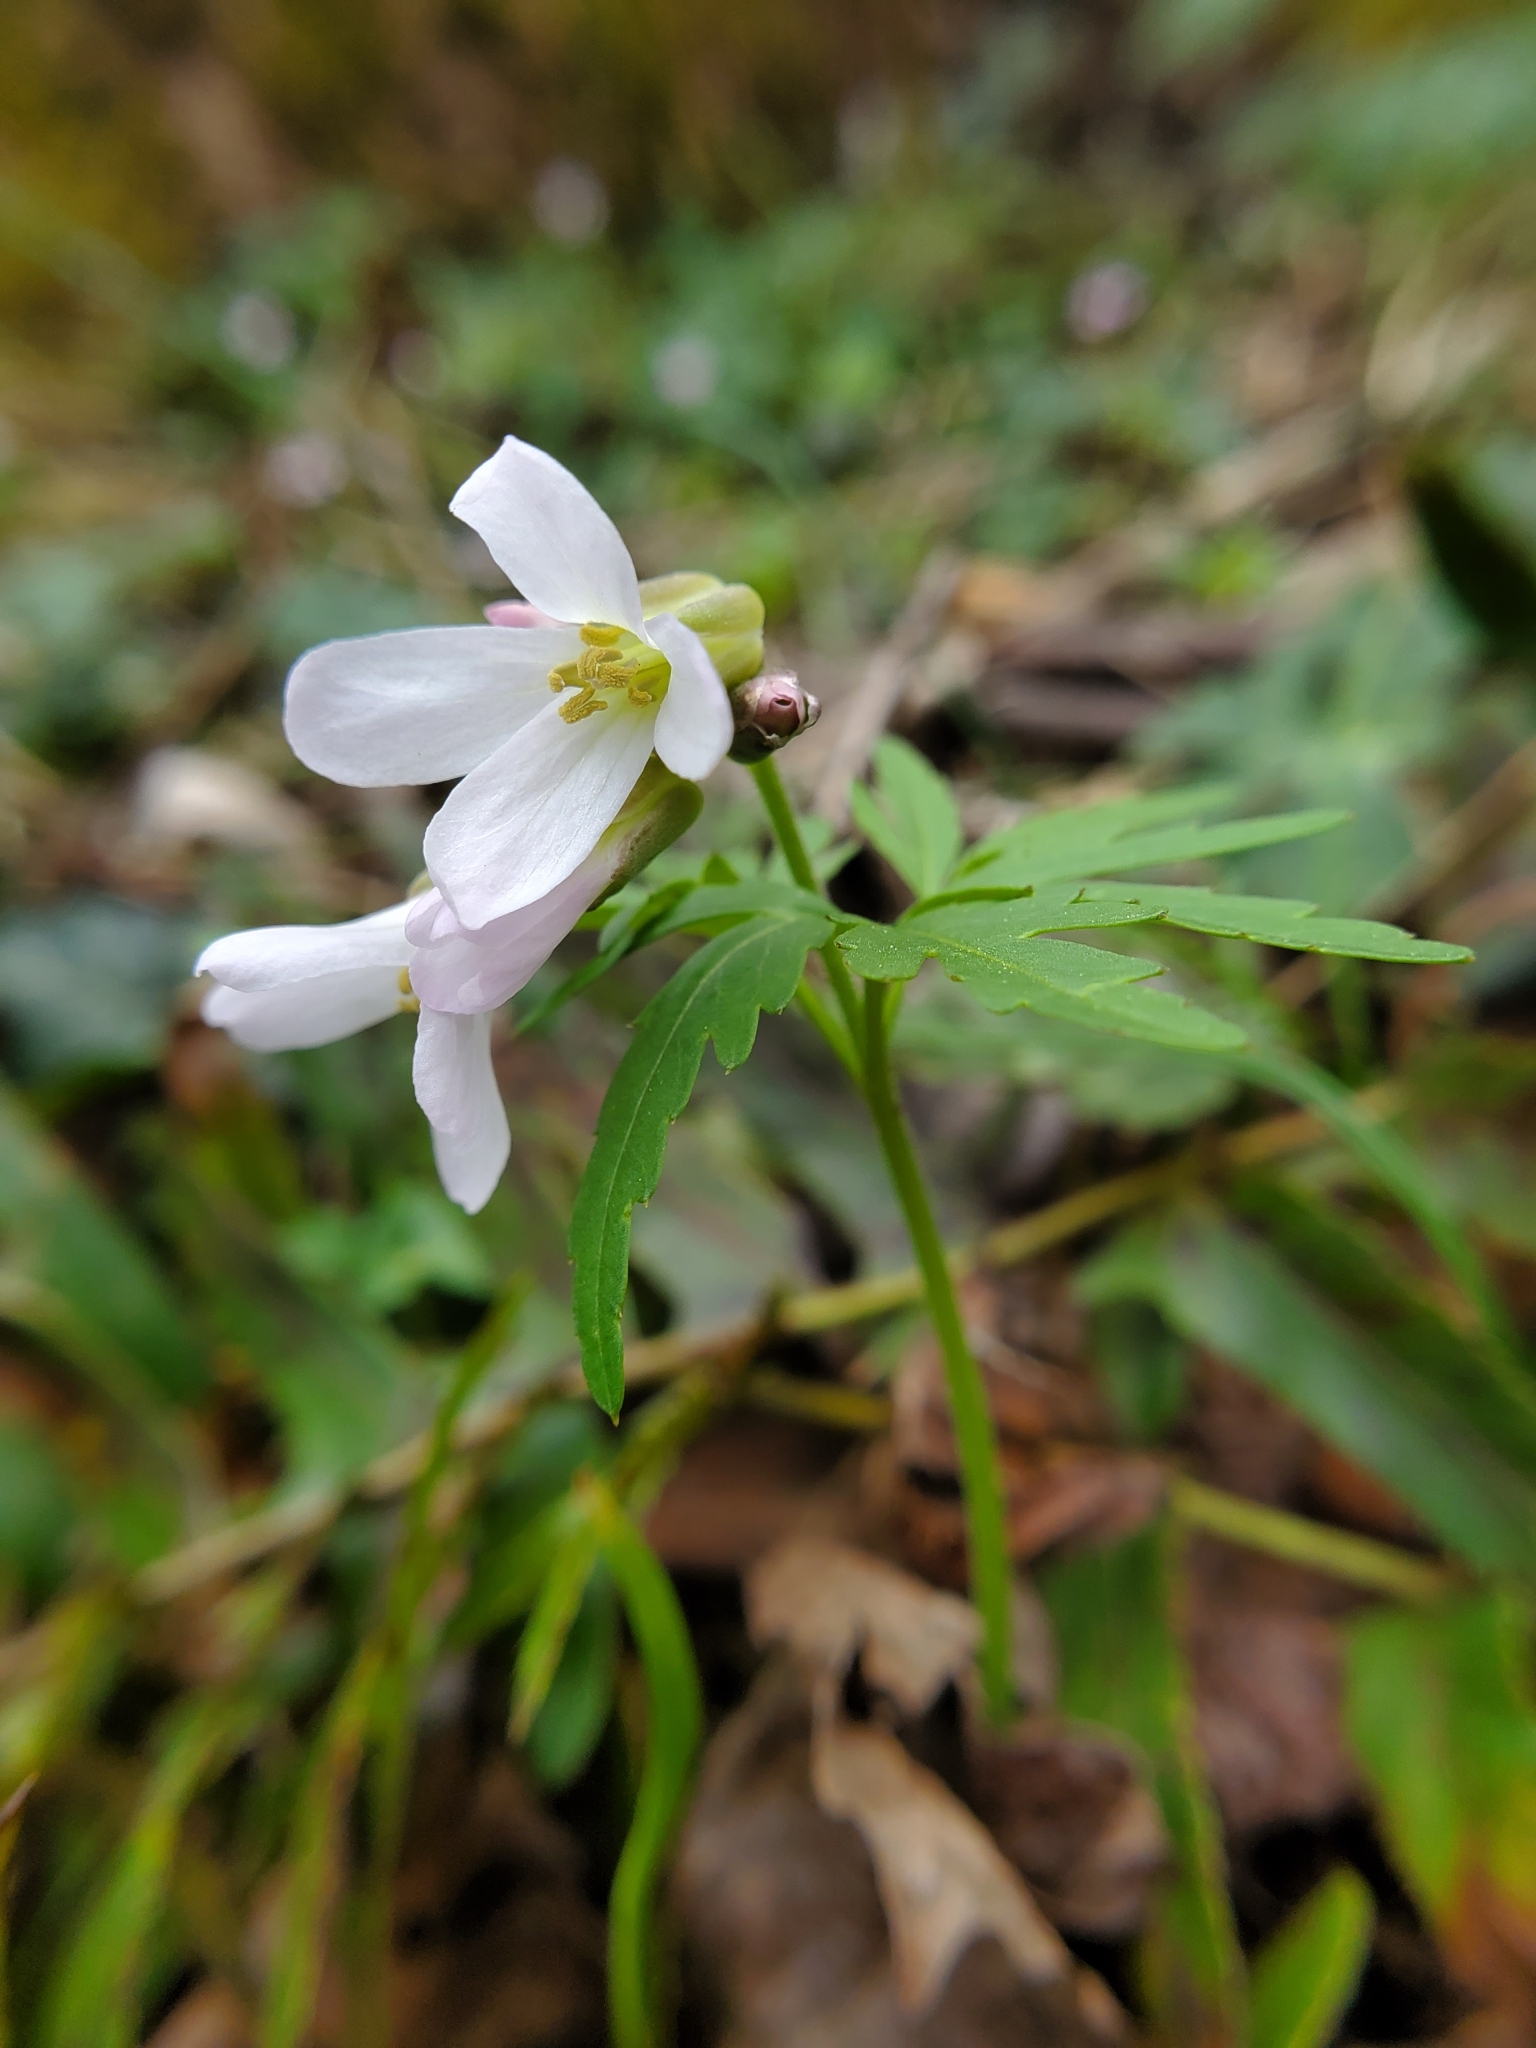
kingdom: Plantae
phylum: Tracheophyta
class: Magnoliopsida
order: Brassicales
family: Brassicaceae
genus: Cardamine
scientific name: Cardamine concatenata
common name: Cut-leaf toothcup
